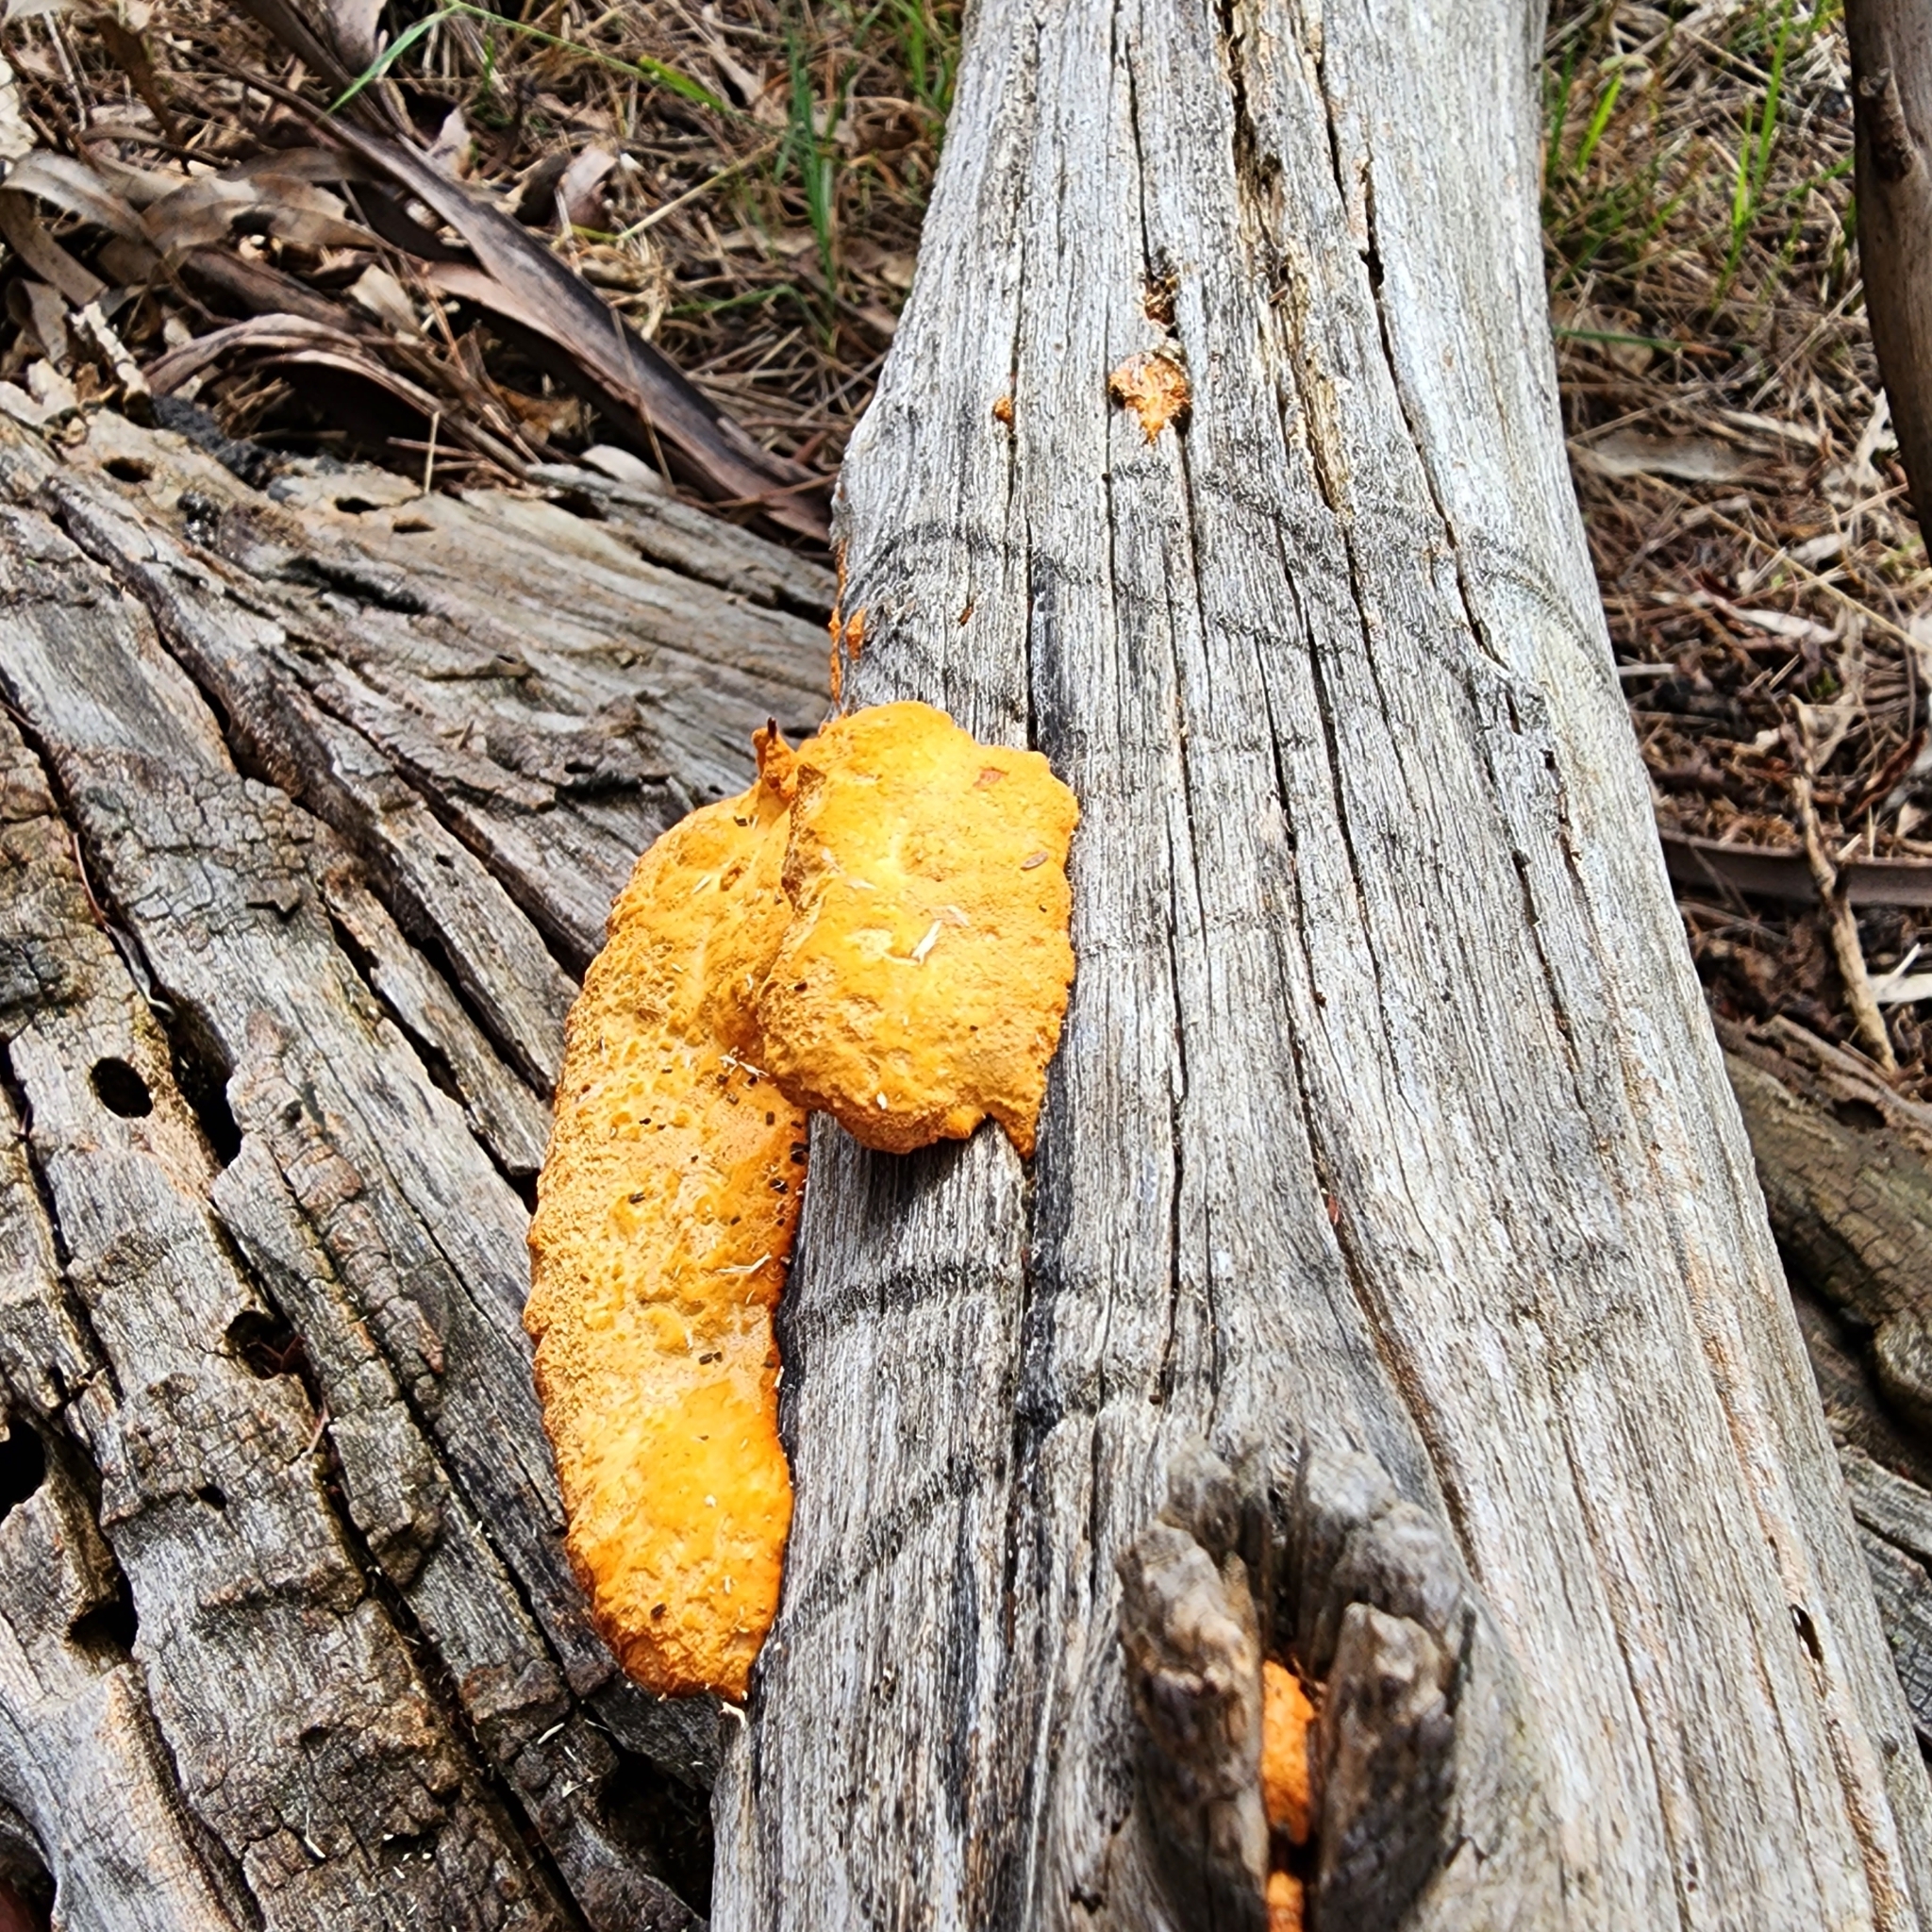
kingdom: Fungi
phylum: Basidiomycota
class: Agaricomycetes
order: Polyporales
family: Polyporaceae
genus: Trametes
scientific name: Trametes coccinea
